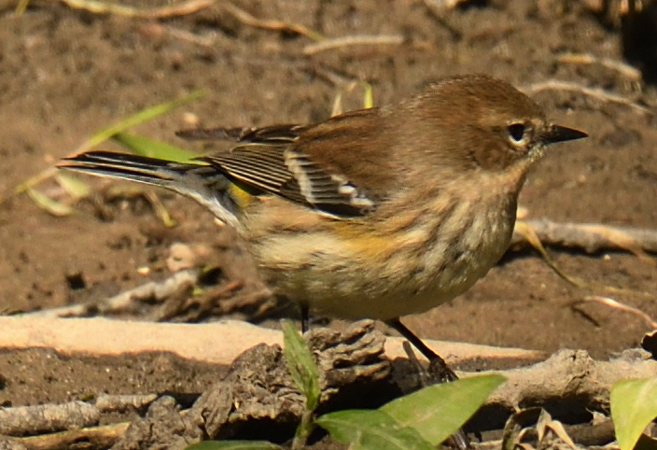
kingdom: Animalia
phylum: Chordata
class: Aves
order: Passeriformes
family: Parulidae
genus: Setophaga
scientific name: Setophaga coronata
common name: Myrtle warbler
